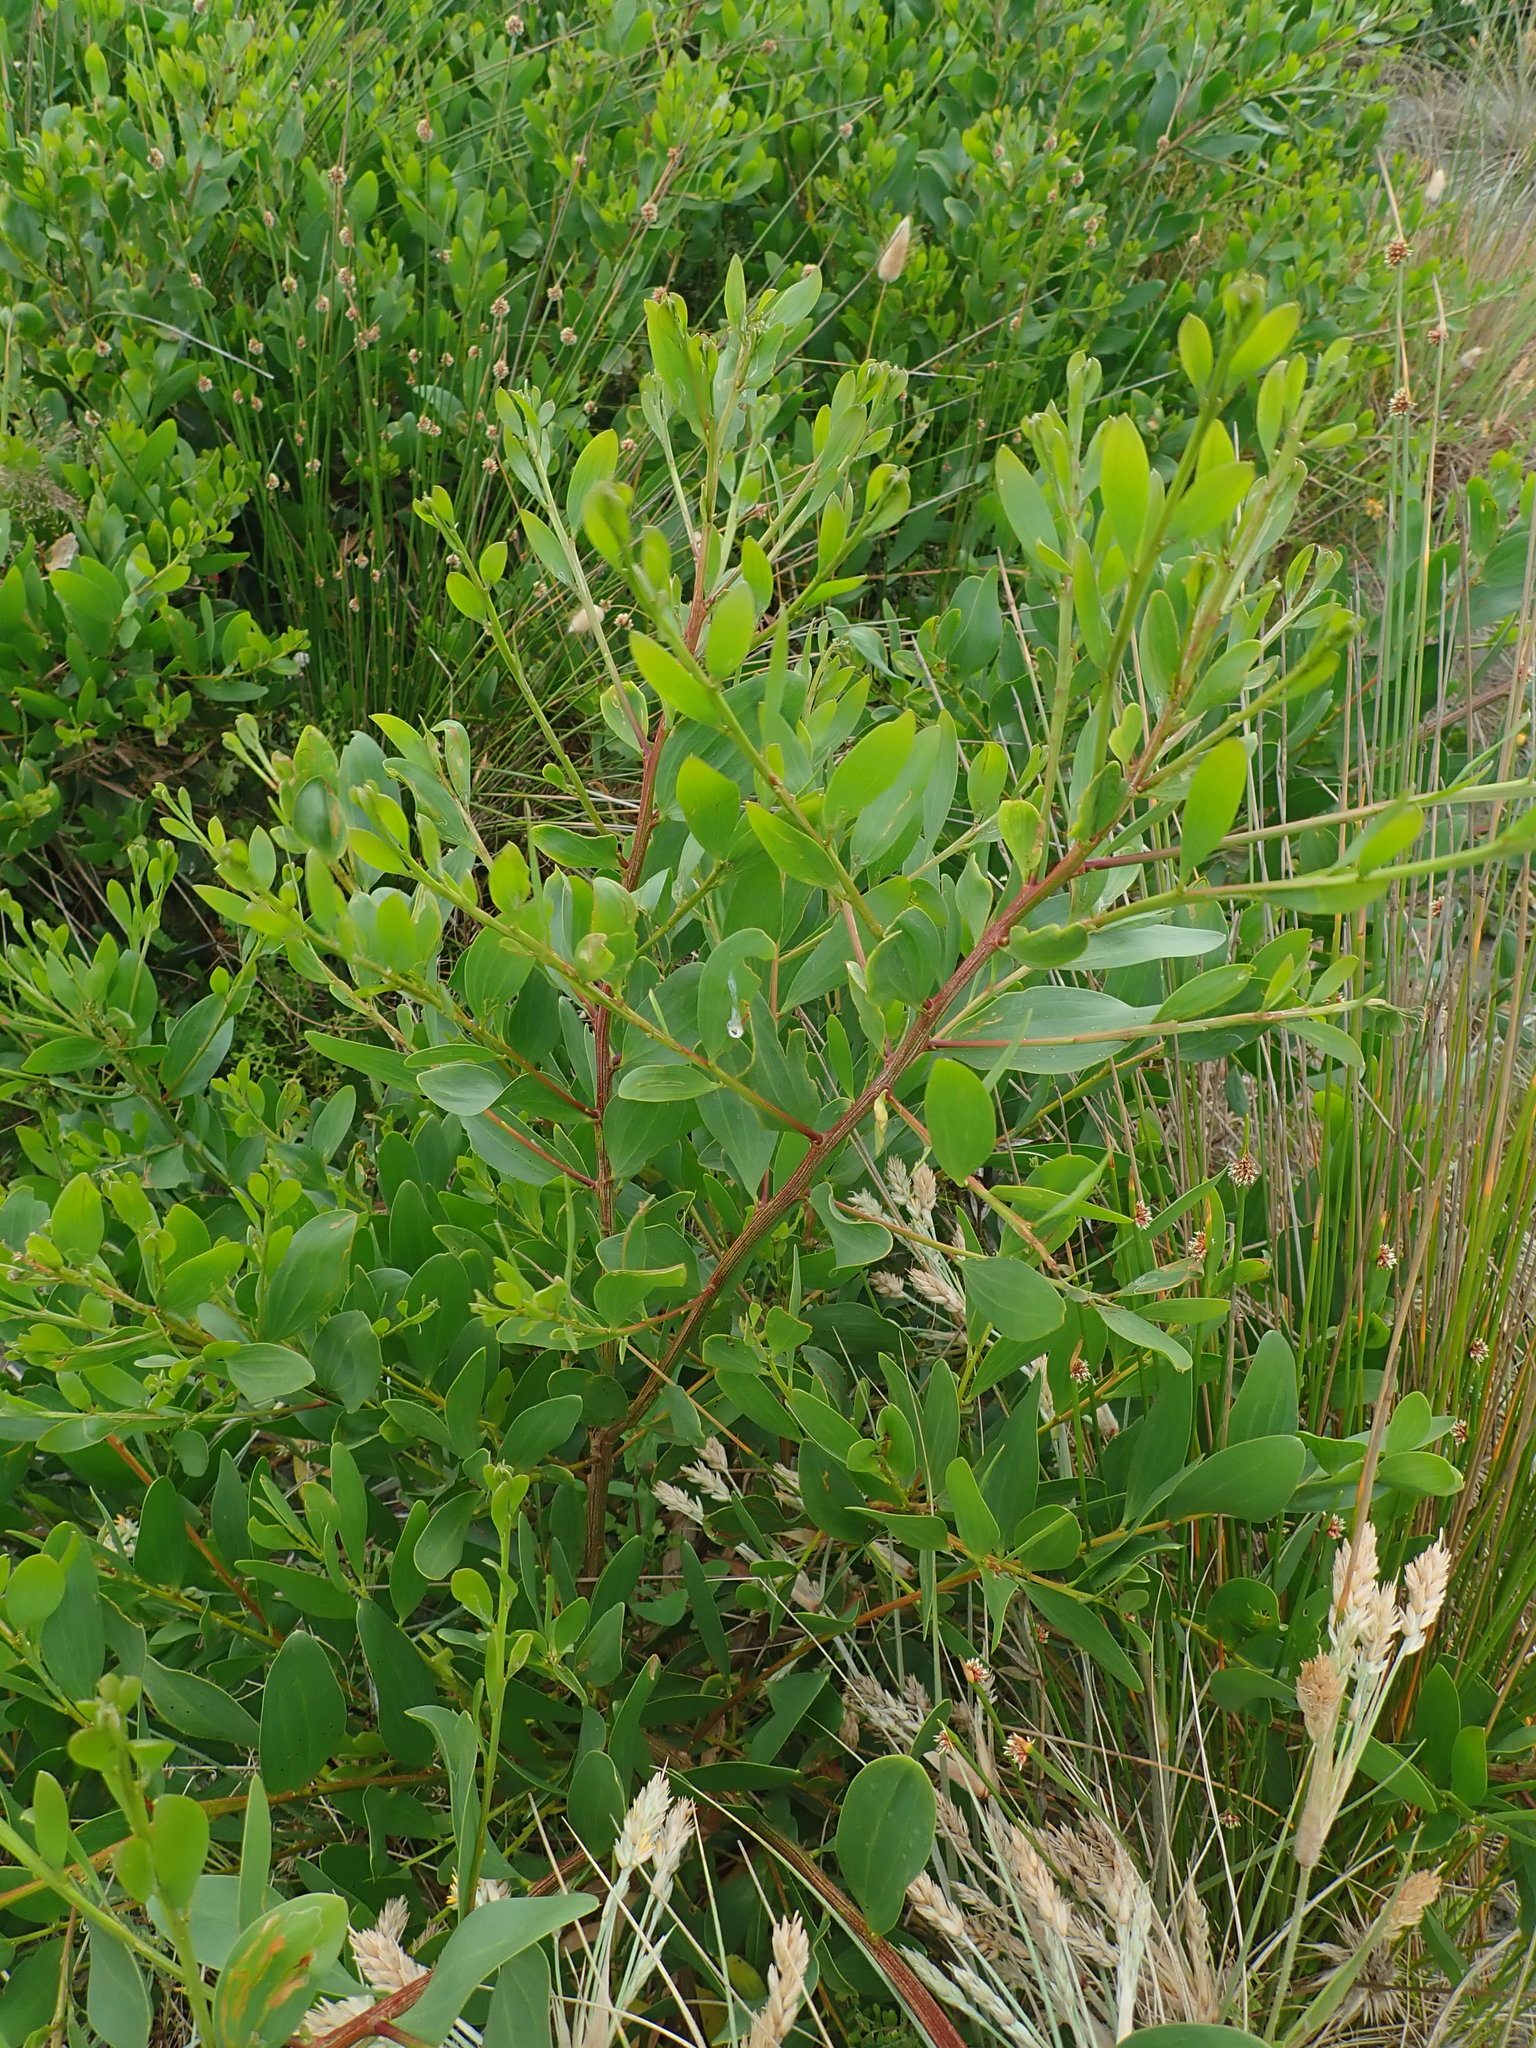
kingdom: Plantae
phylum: Tracheophyta
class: Magnoliopsida
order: Fabales
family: Fabaceae
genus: Acacia
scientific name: Acacia longifolia
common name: Sydney golden wattle
